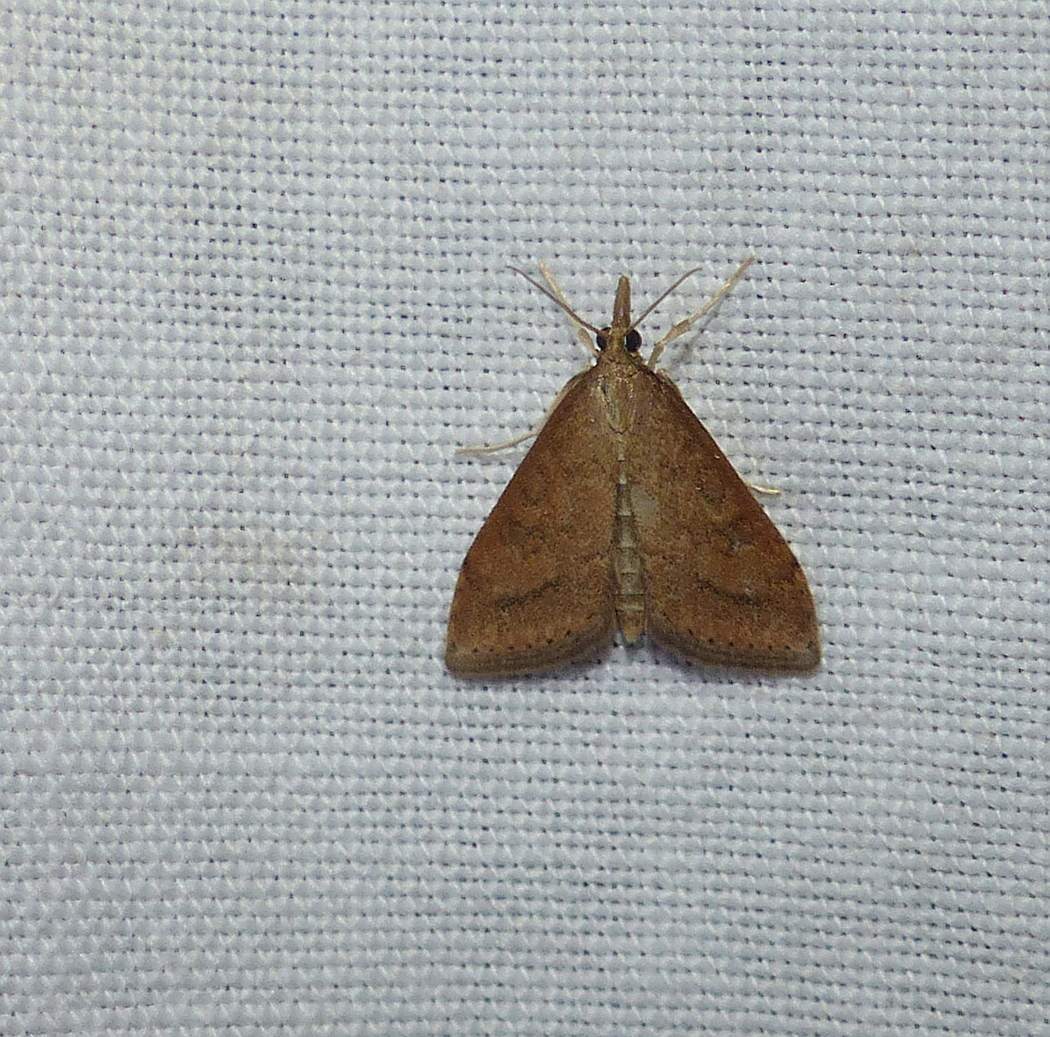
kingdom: Animalia
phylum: Arthropoda
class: Insecta
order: Lepidoptera
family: Crambidae
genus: Udea
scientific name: Udea rubigalis
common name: Celery leaftier moth
